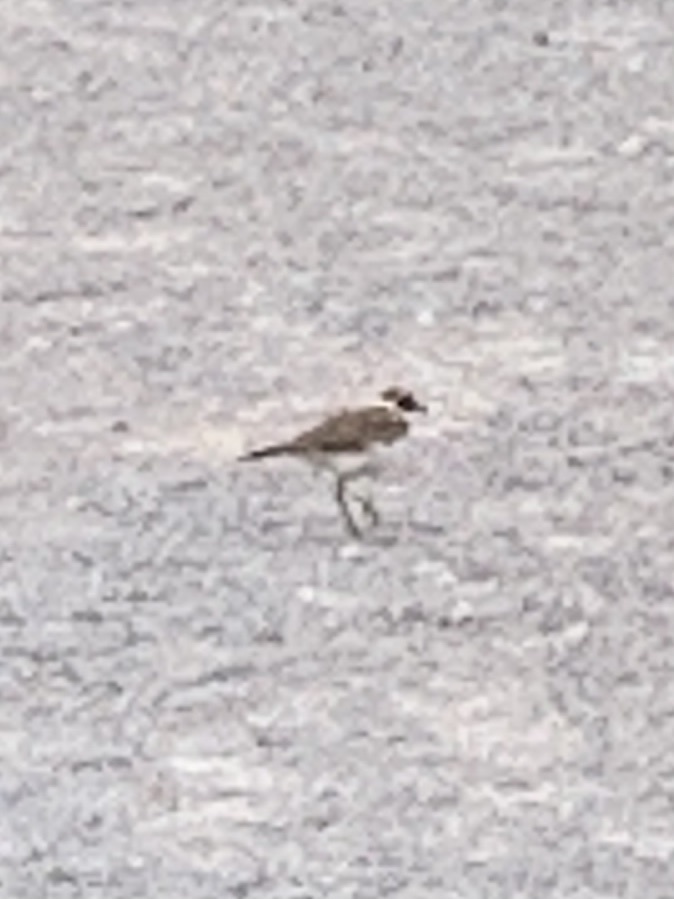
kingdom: Animalia
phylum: Chordata
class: Aves
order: Charadriiformes
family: Charadriidae
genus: Charadrius
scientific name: Charadrius vociferus
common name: Killdeer
